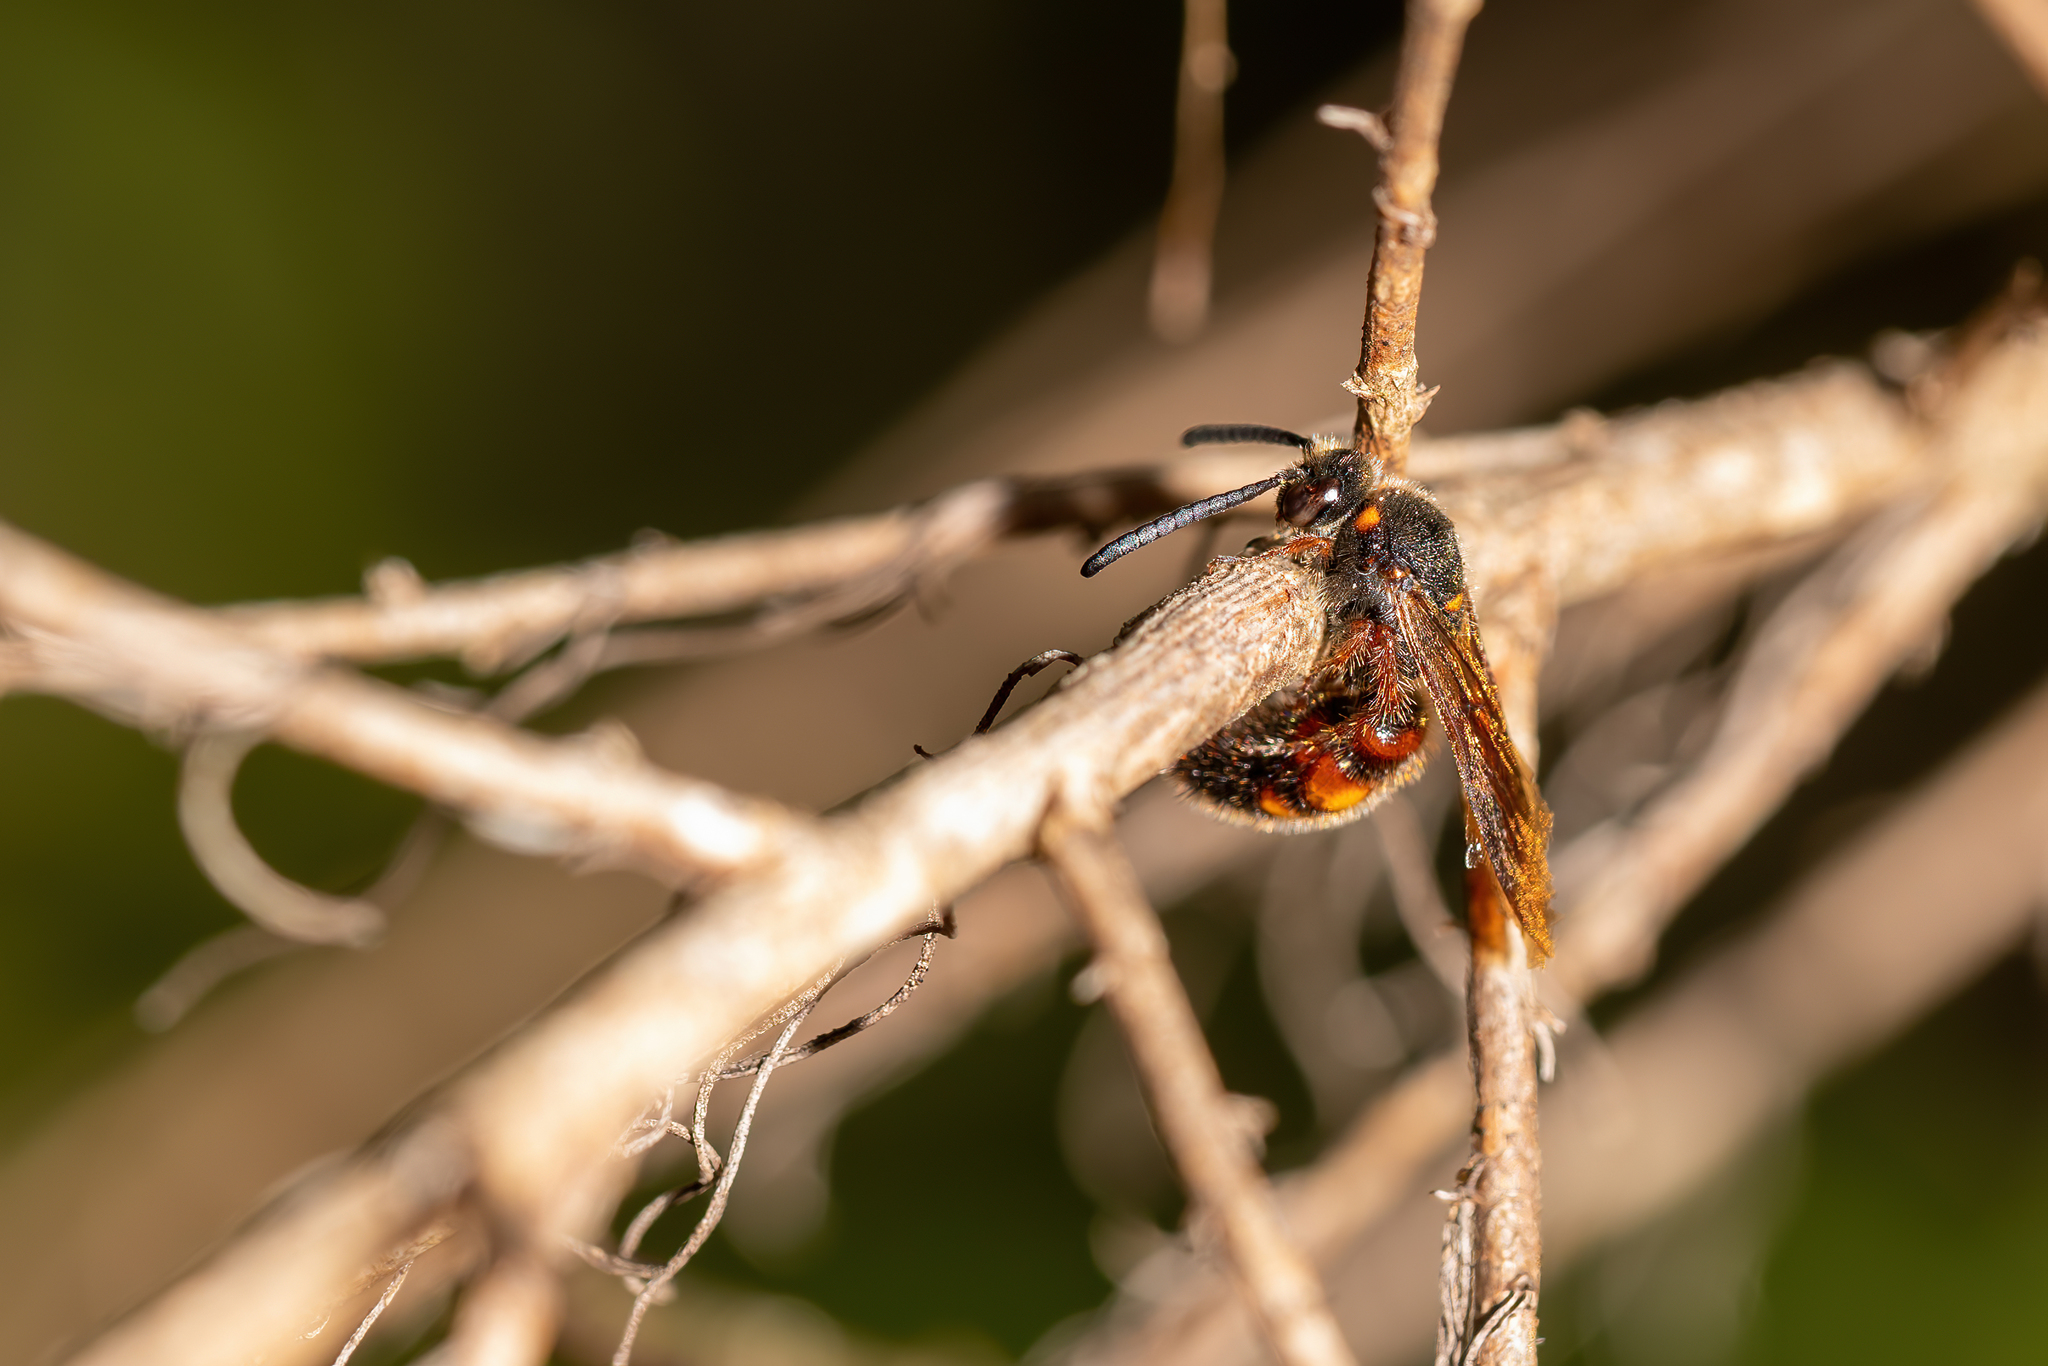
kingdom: Animalia
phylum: Arthropoda
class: Insecta
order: Hymenoptera
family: Scoliidae
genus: Scolia
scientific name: Scolia nobilitata
